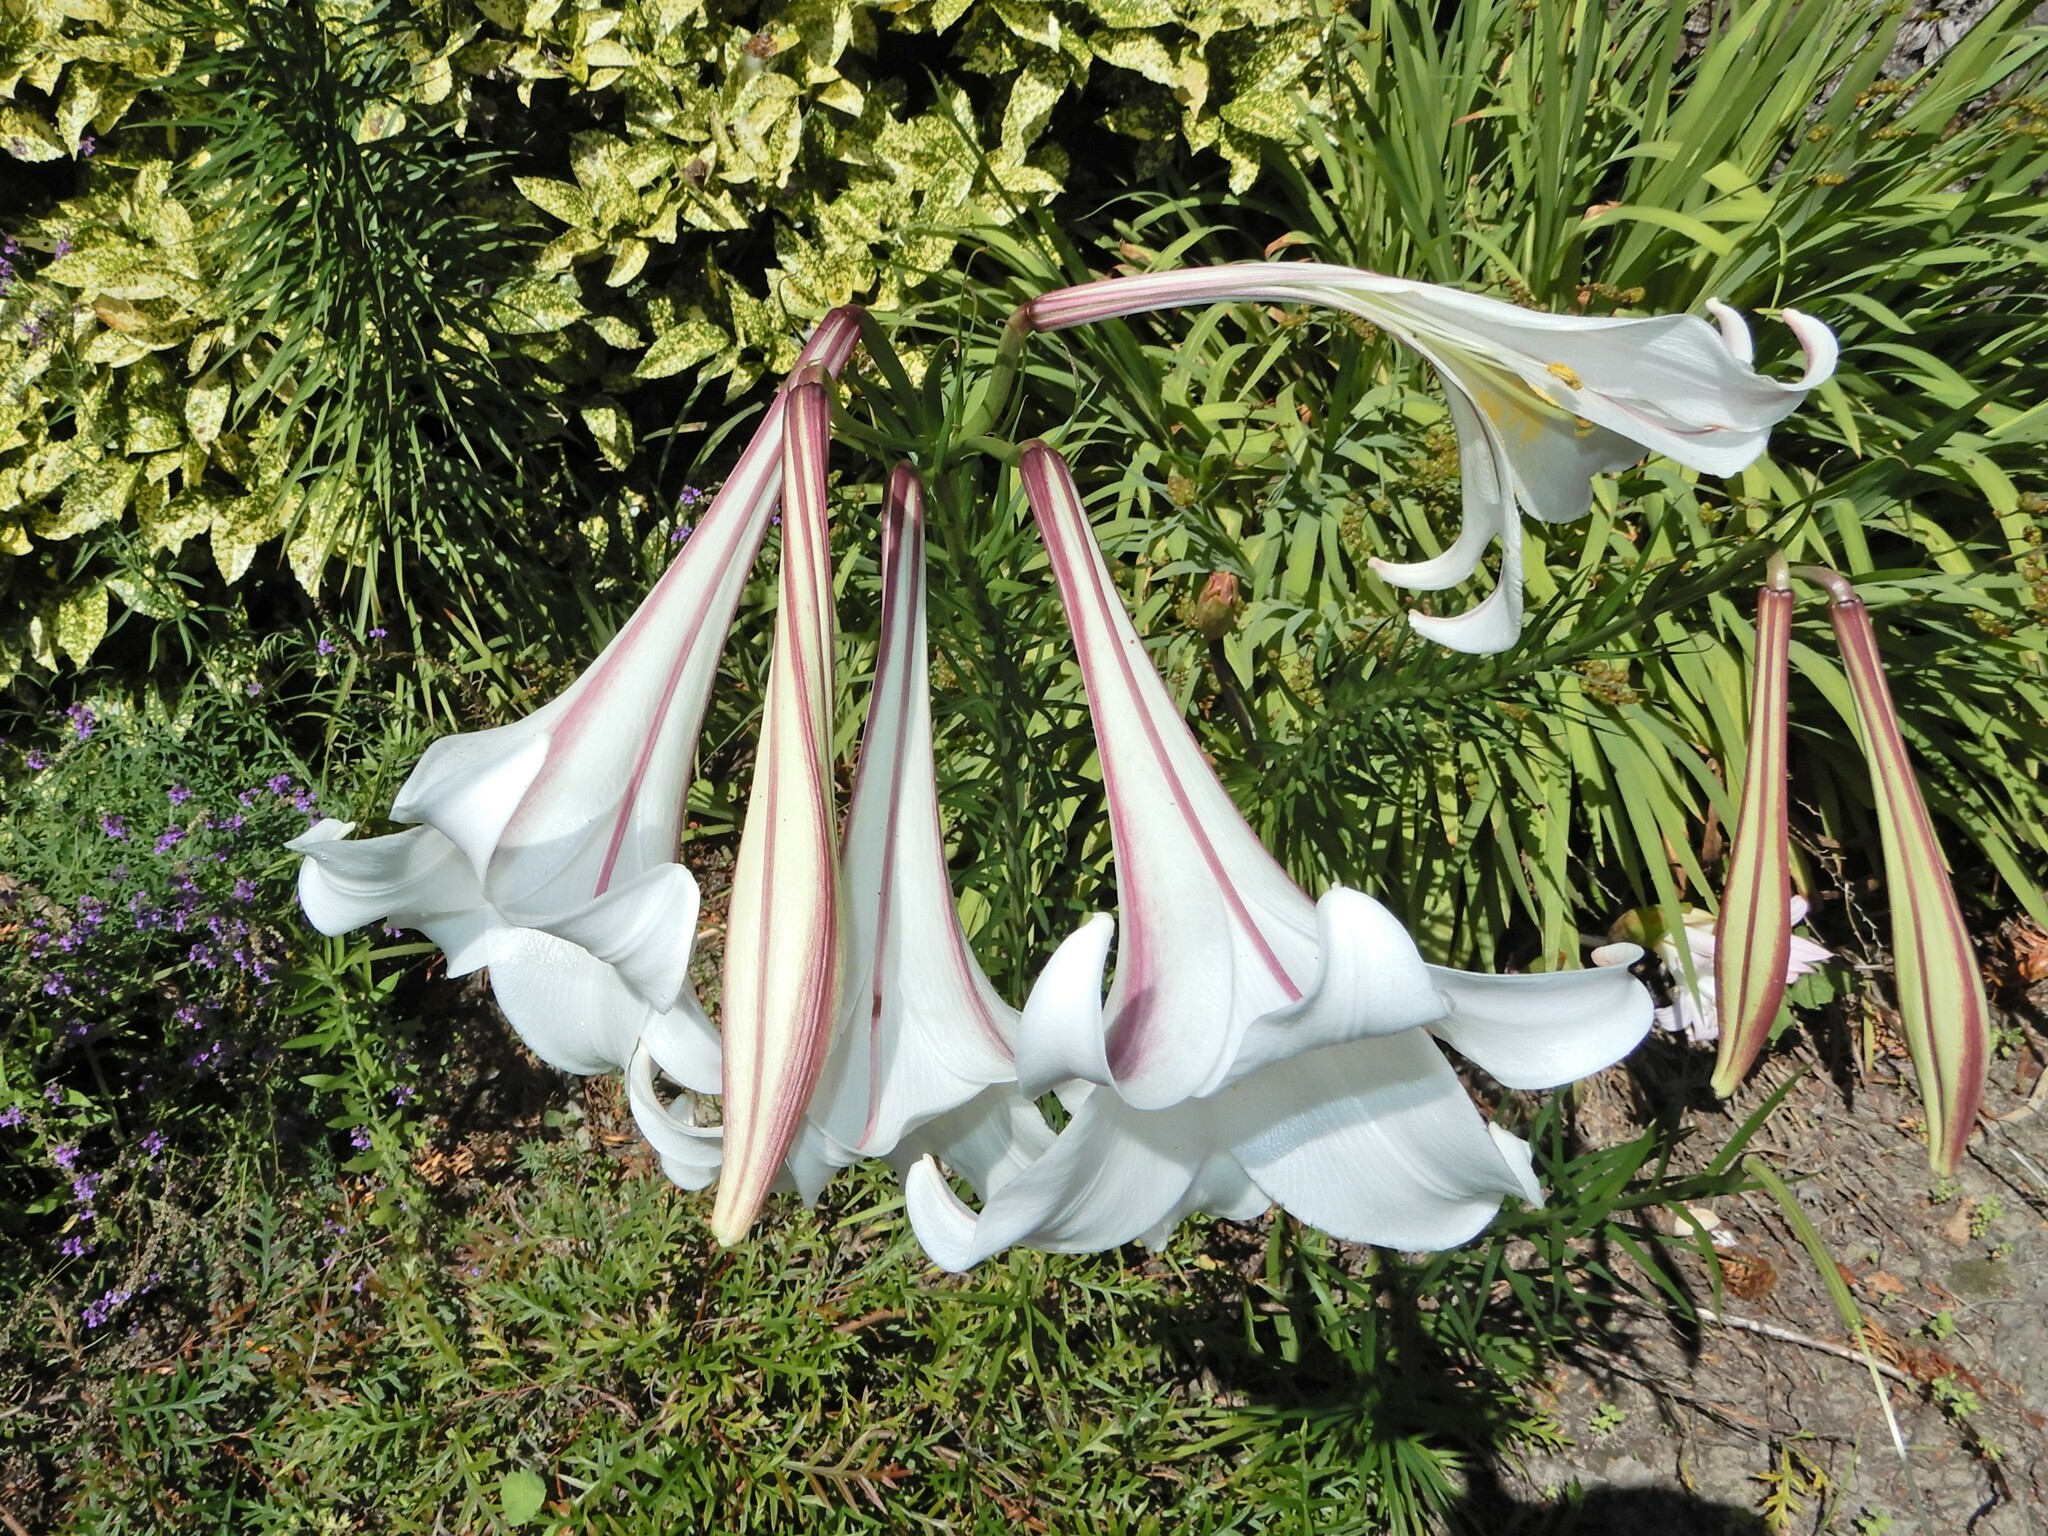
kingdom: Plantae
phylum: Tracheophyta
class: Liliopsida
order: Liliales
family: Liliaceae
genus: Lilium
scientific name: Lilium formosanum
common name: Formosa lily
